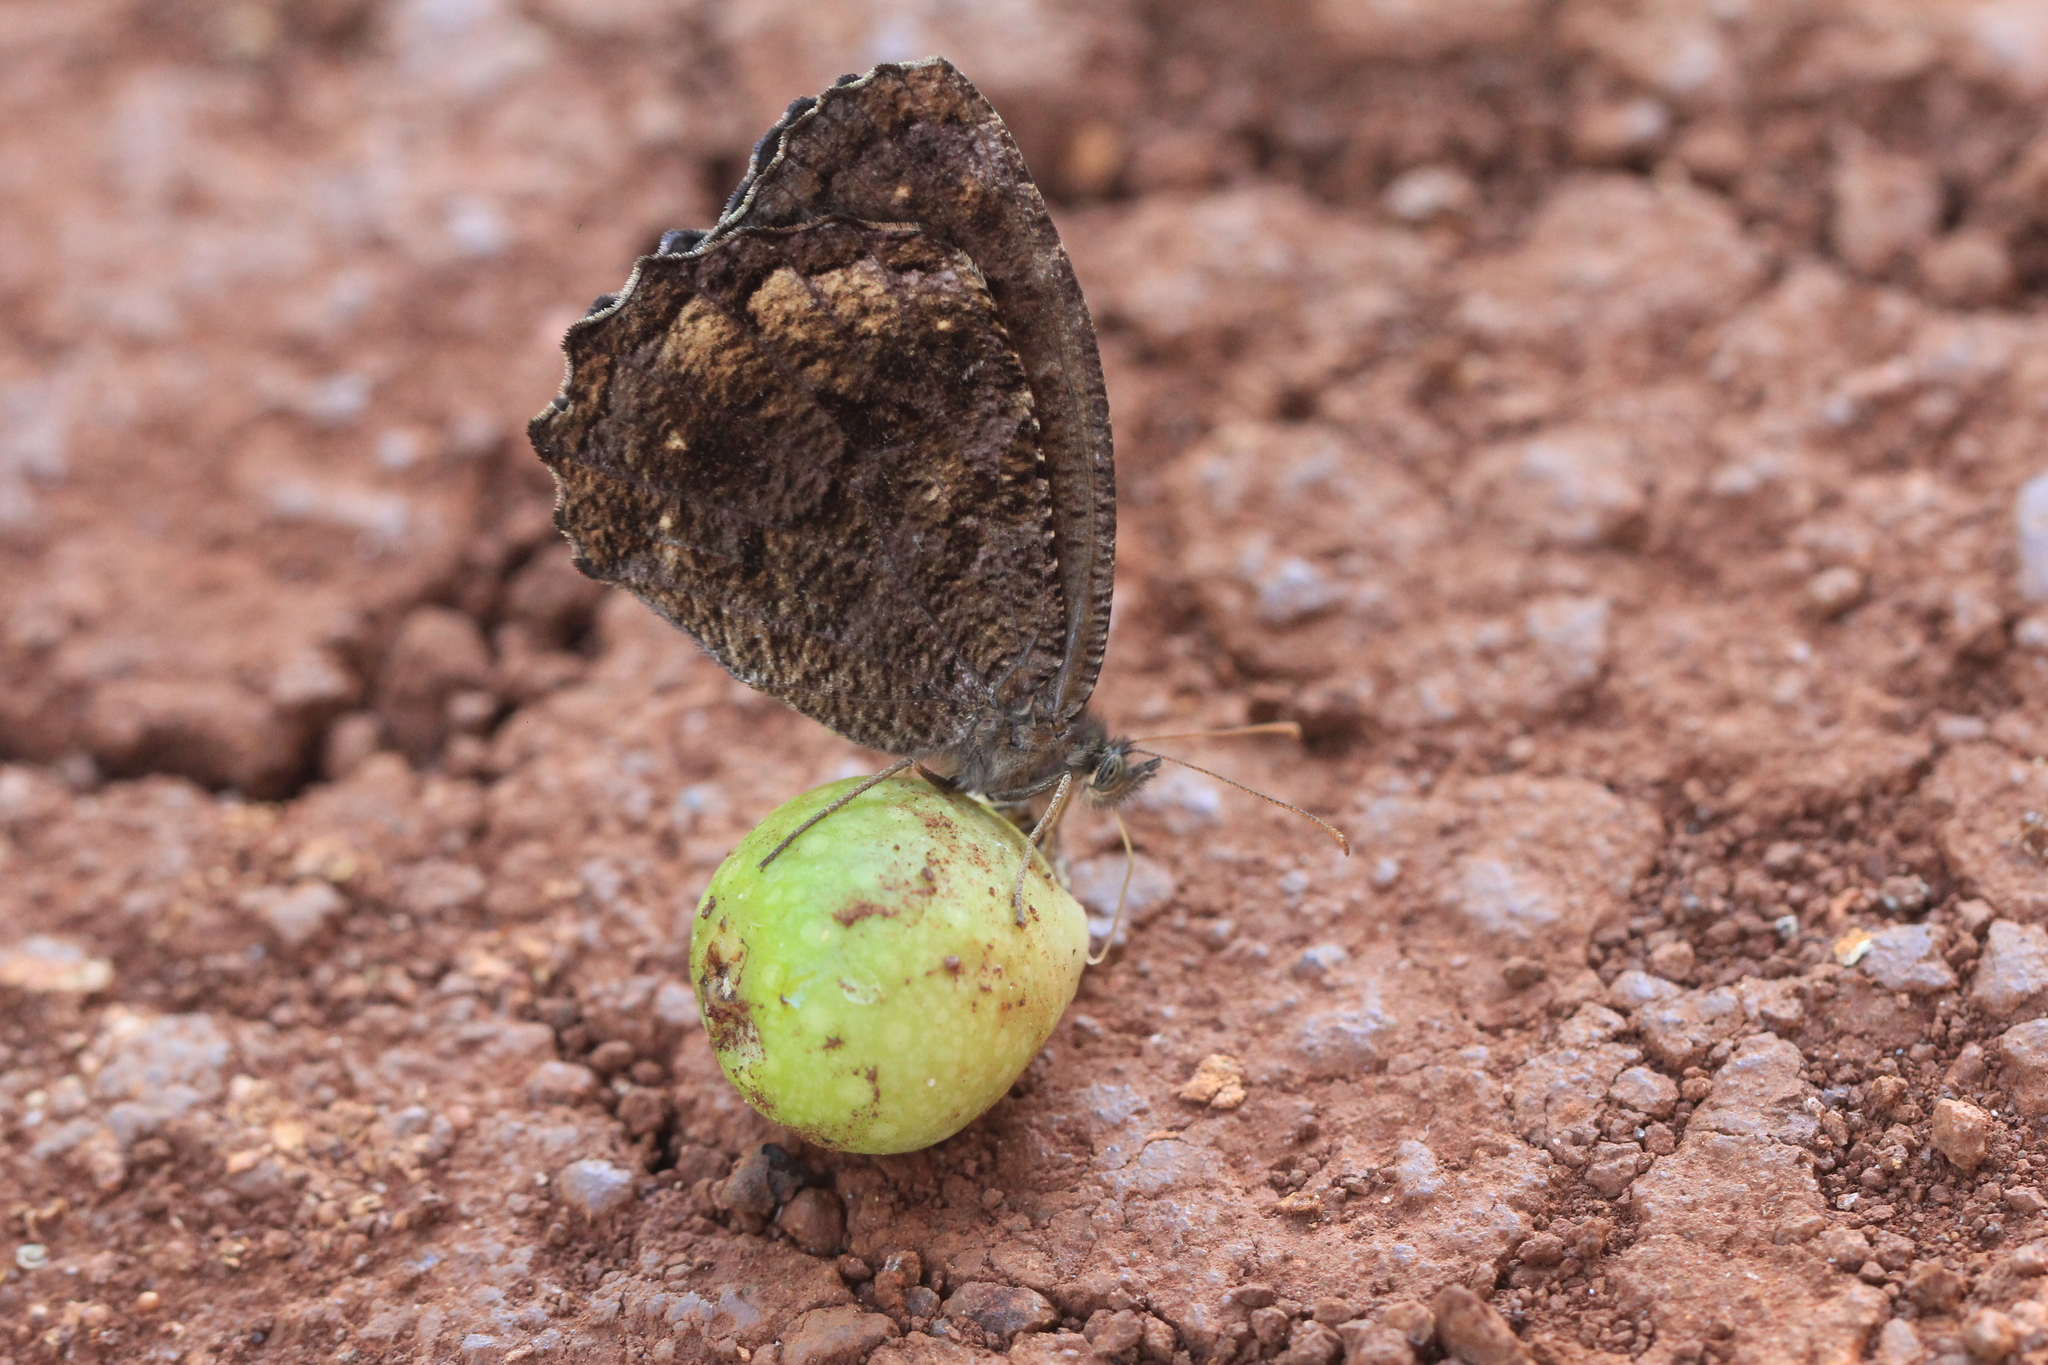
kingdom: Animalia
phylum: Arthropoda
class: Insecta
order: Lepidoptera
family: Nymphalidae
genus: Praepedaliodes
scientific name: Praepedaliodes phanias
